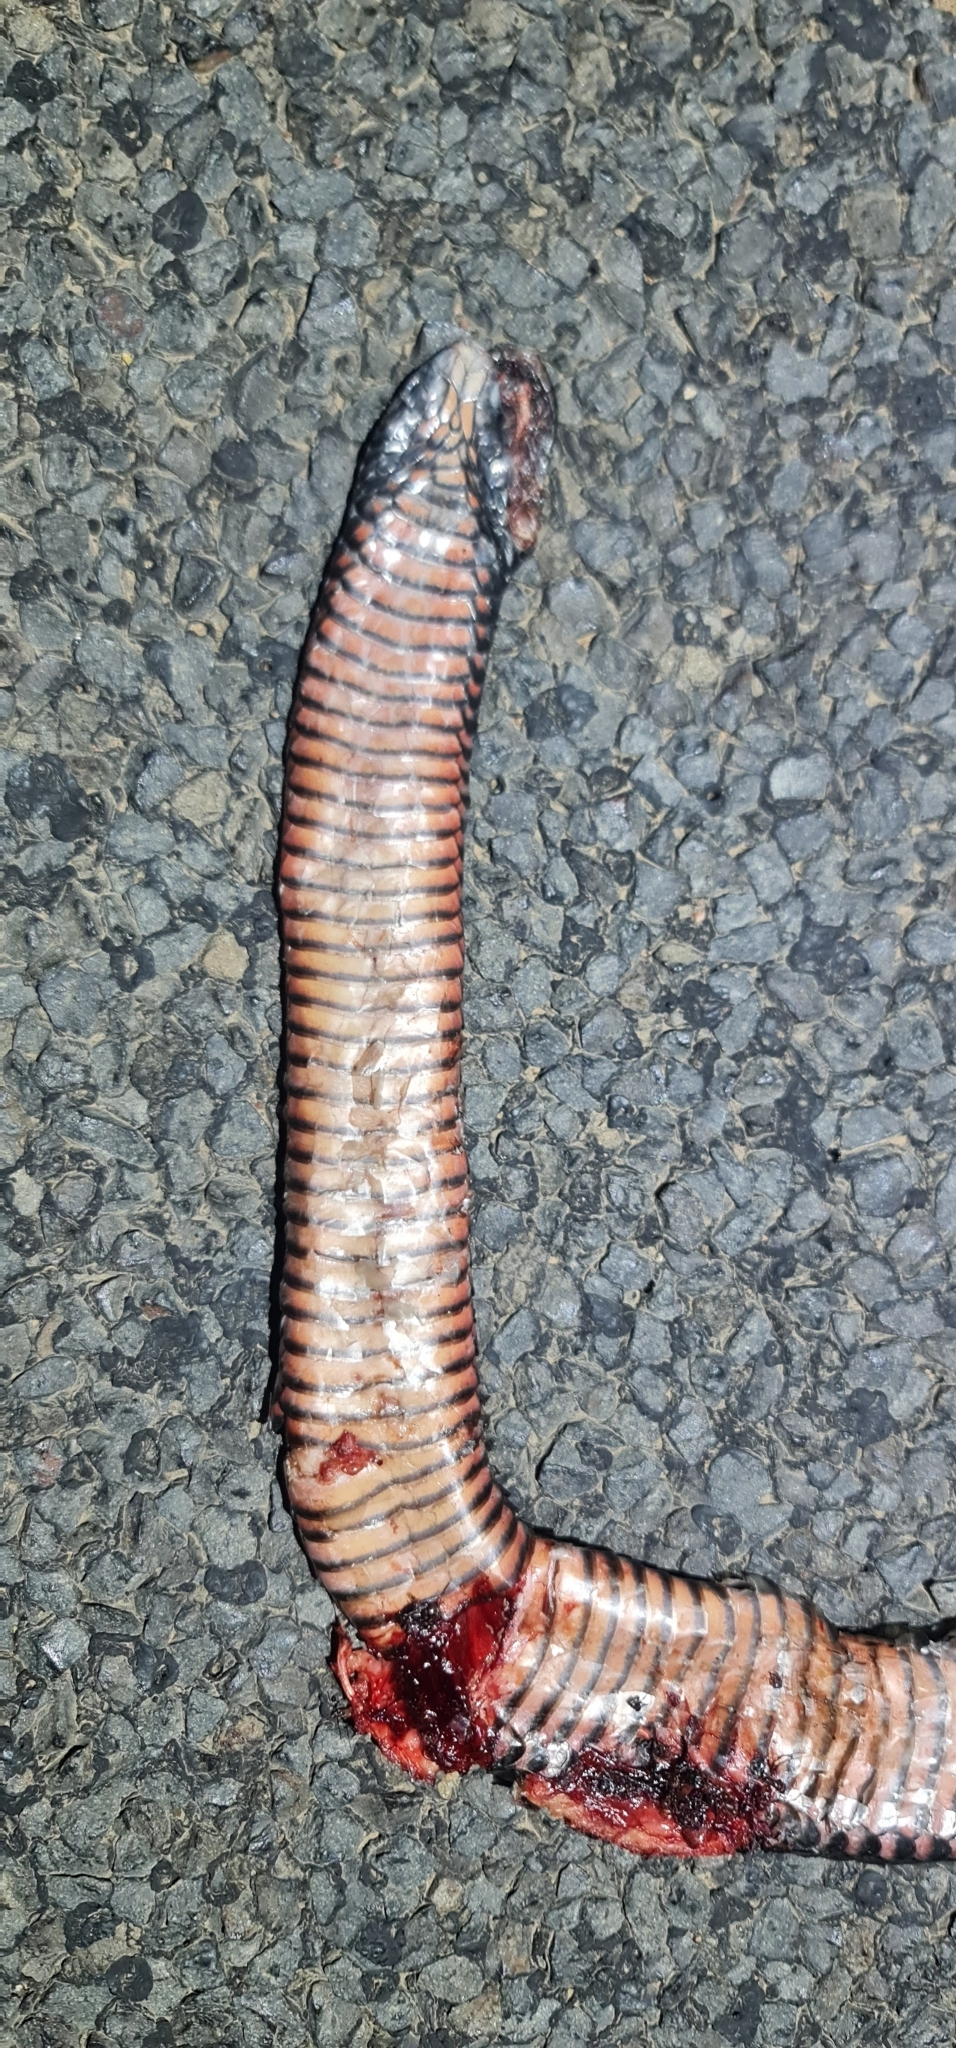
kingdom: Animalia
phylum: Chordata
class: Squamata
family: Elapidae
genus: Pseudechis
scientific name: Pseudechis porphyriacus
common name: Australian black snake
